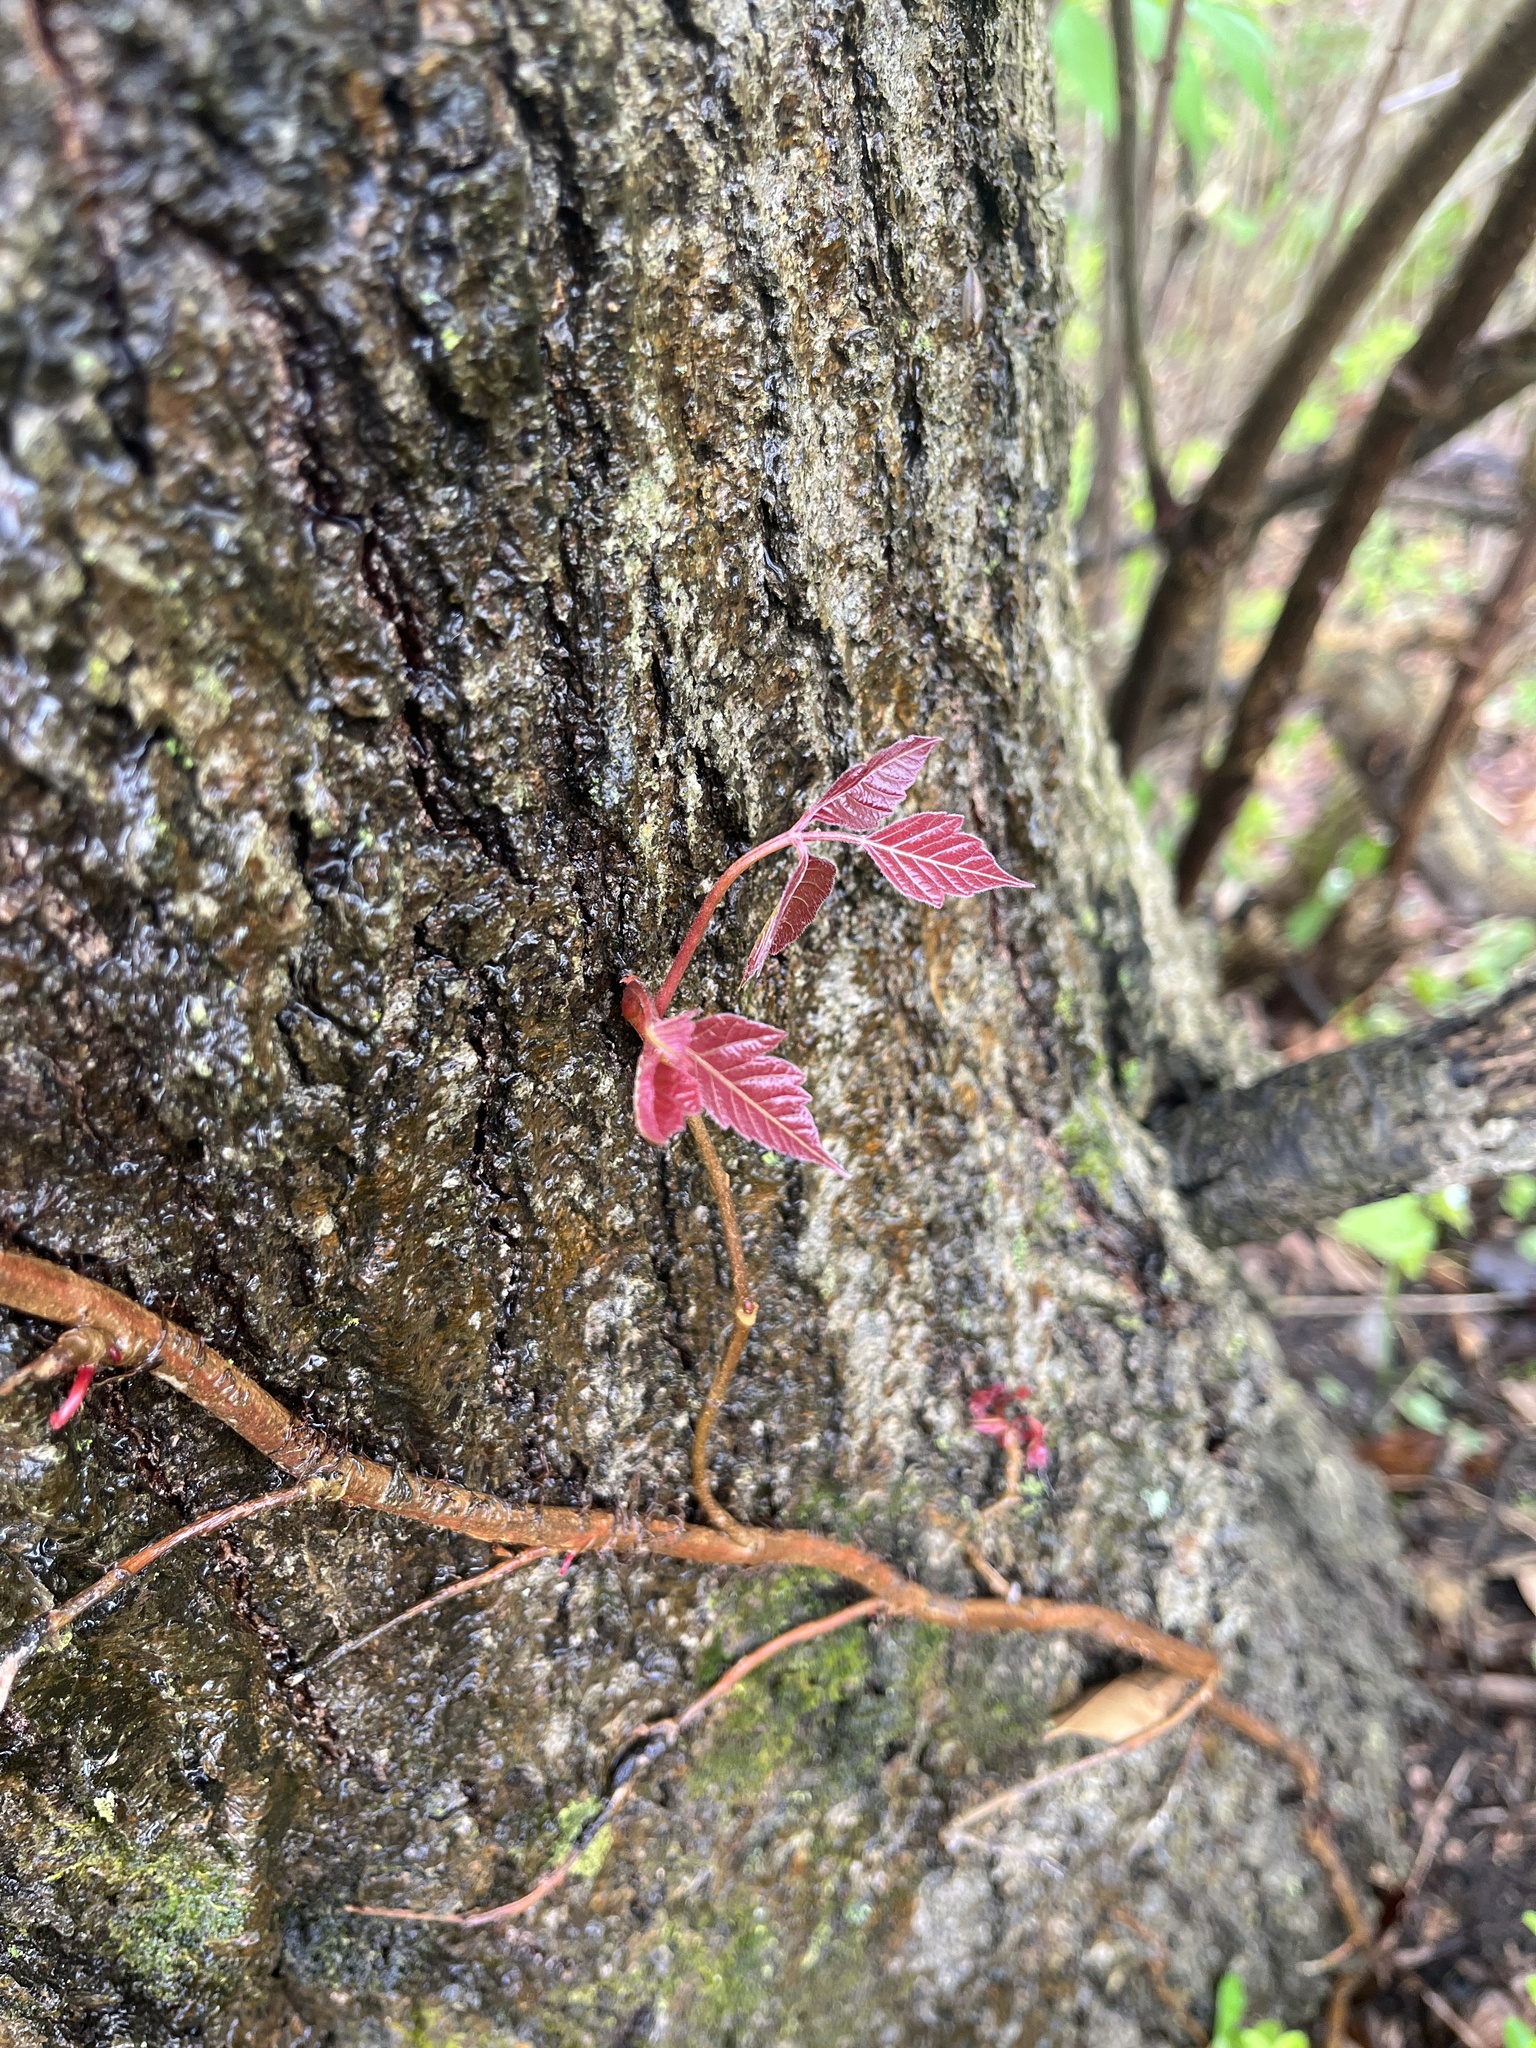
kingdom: Plantae
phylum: Tracheophyta
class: Magnoliopsida
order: Sapindales
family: Anacardiaceae
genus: Toxicodendron
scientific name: Toxicodendron radicans
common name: Poison ivy
